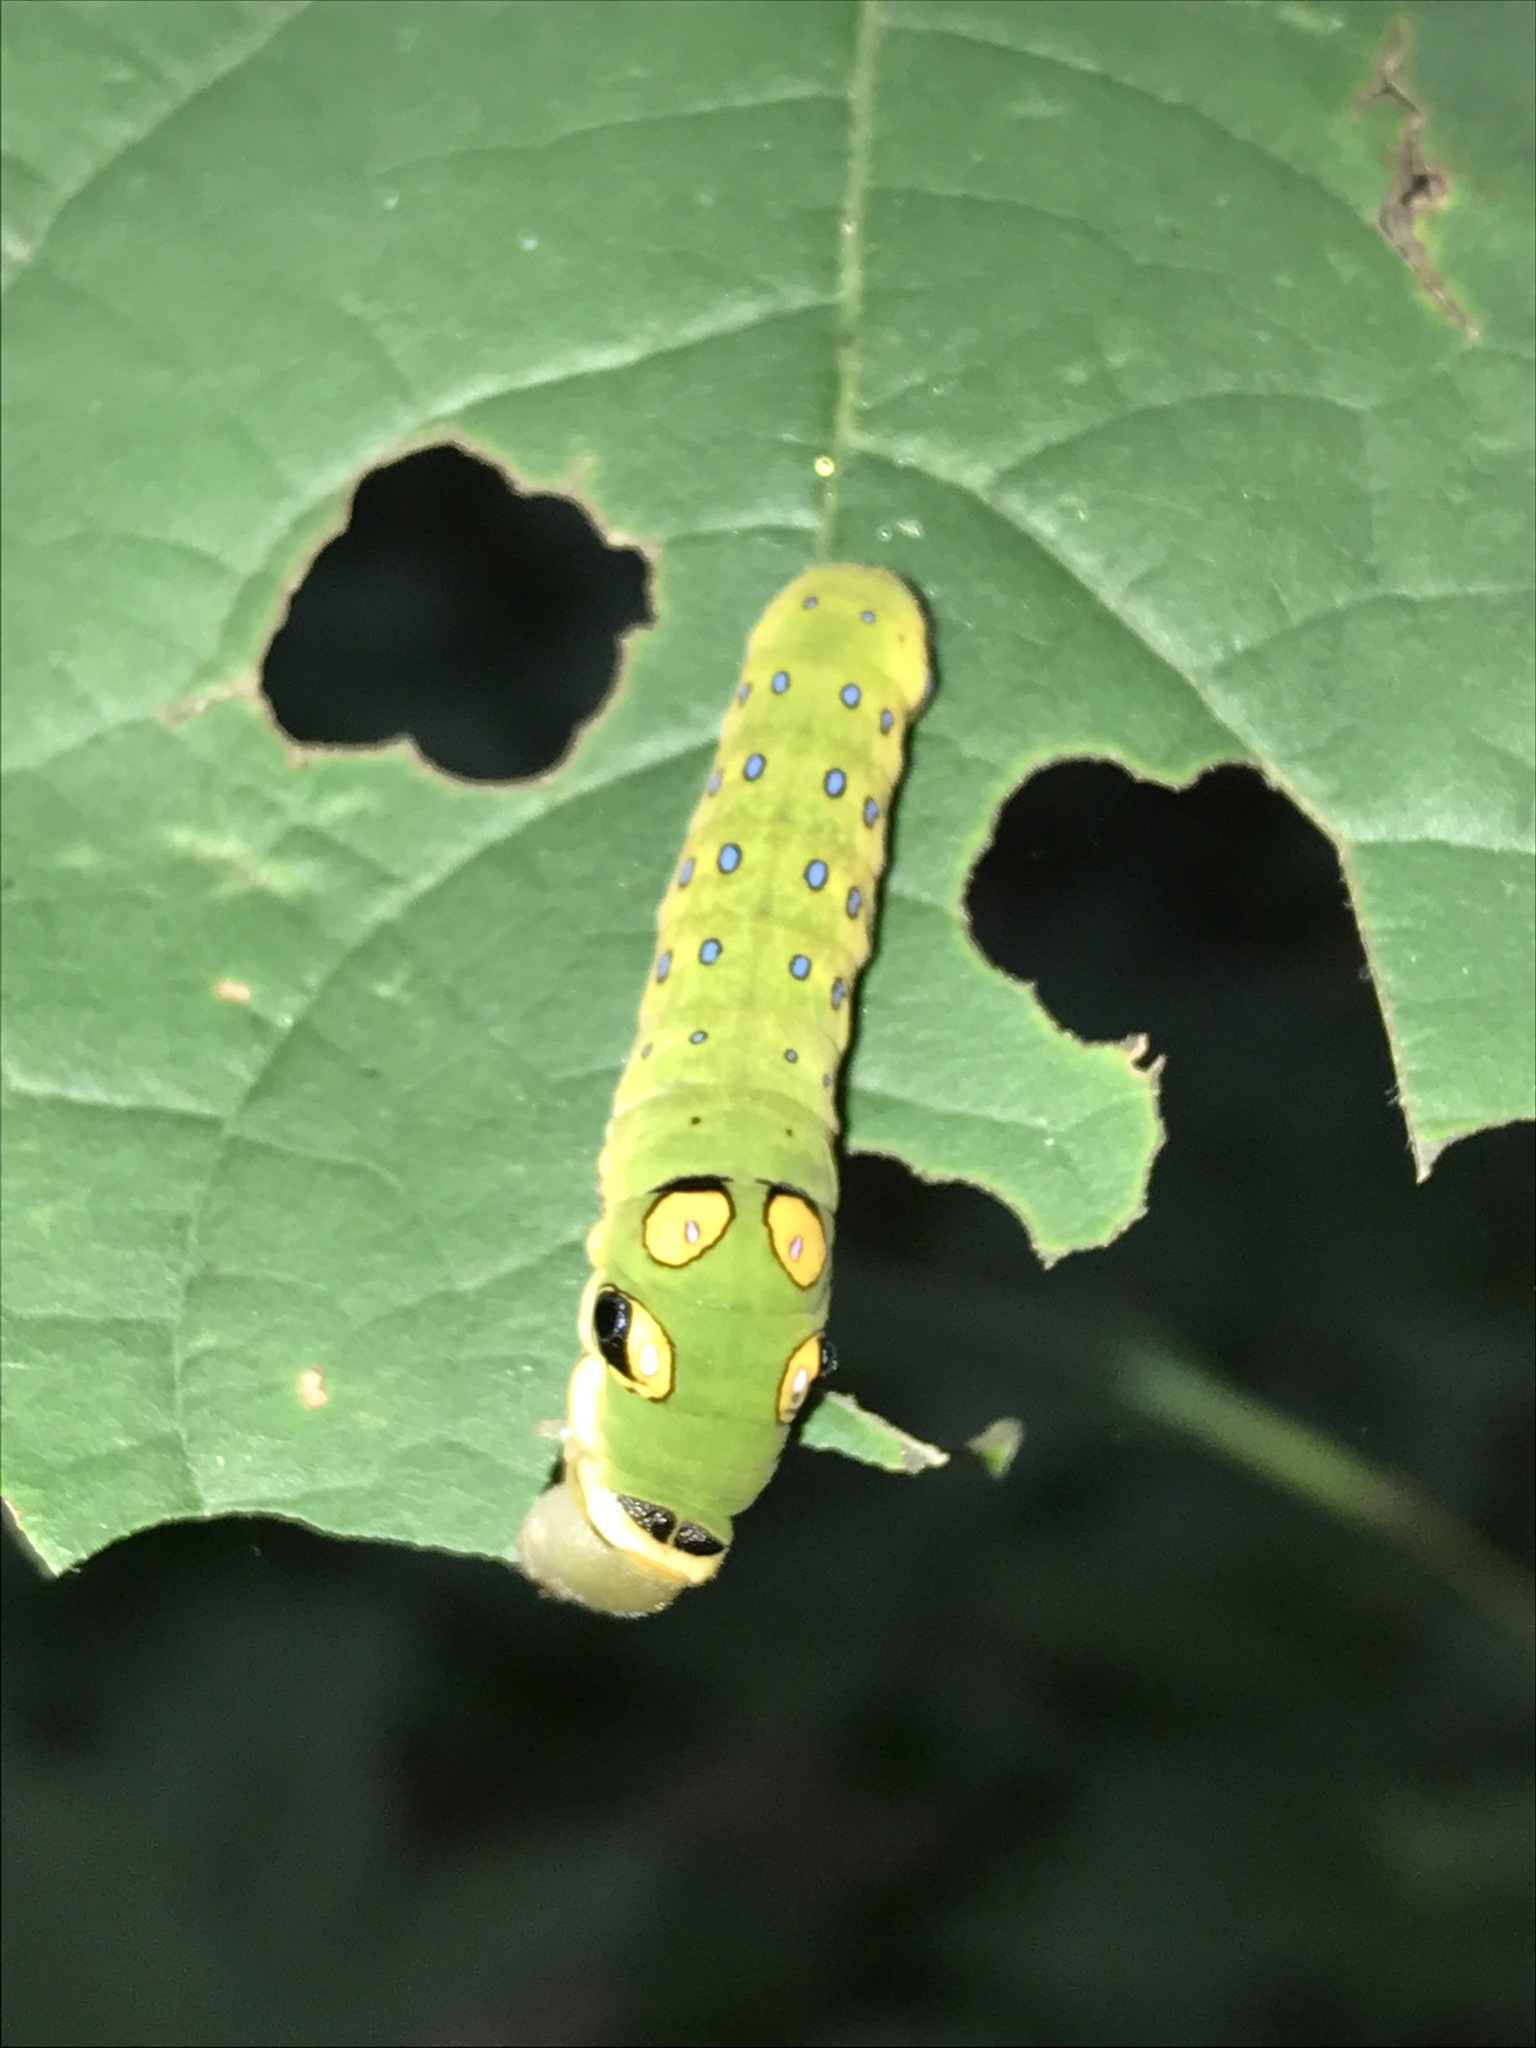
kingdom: Animalia
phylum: Arthropoda
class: Insecta
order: Lepidoptera
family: Papilionidae
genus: Papilio
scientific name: Papilio troilus
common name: Spicebush swallowtail
